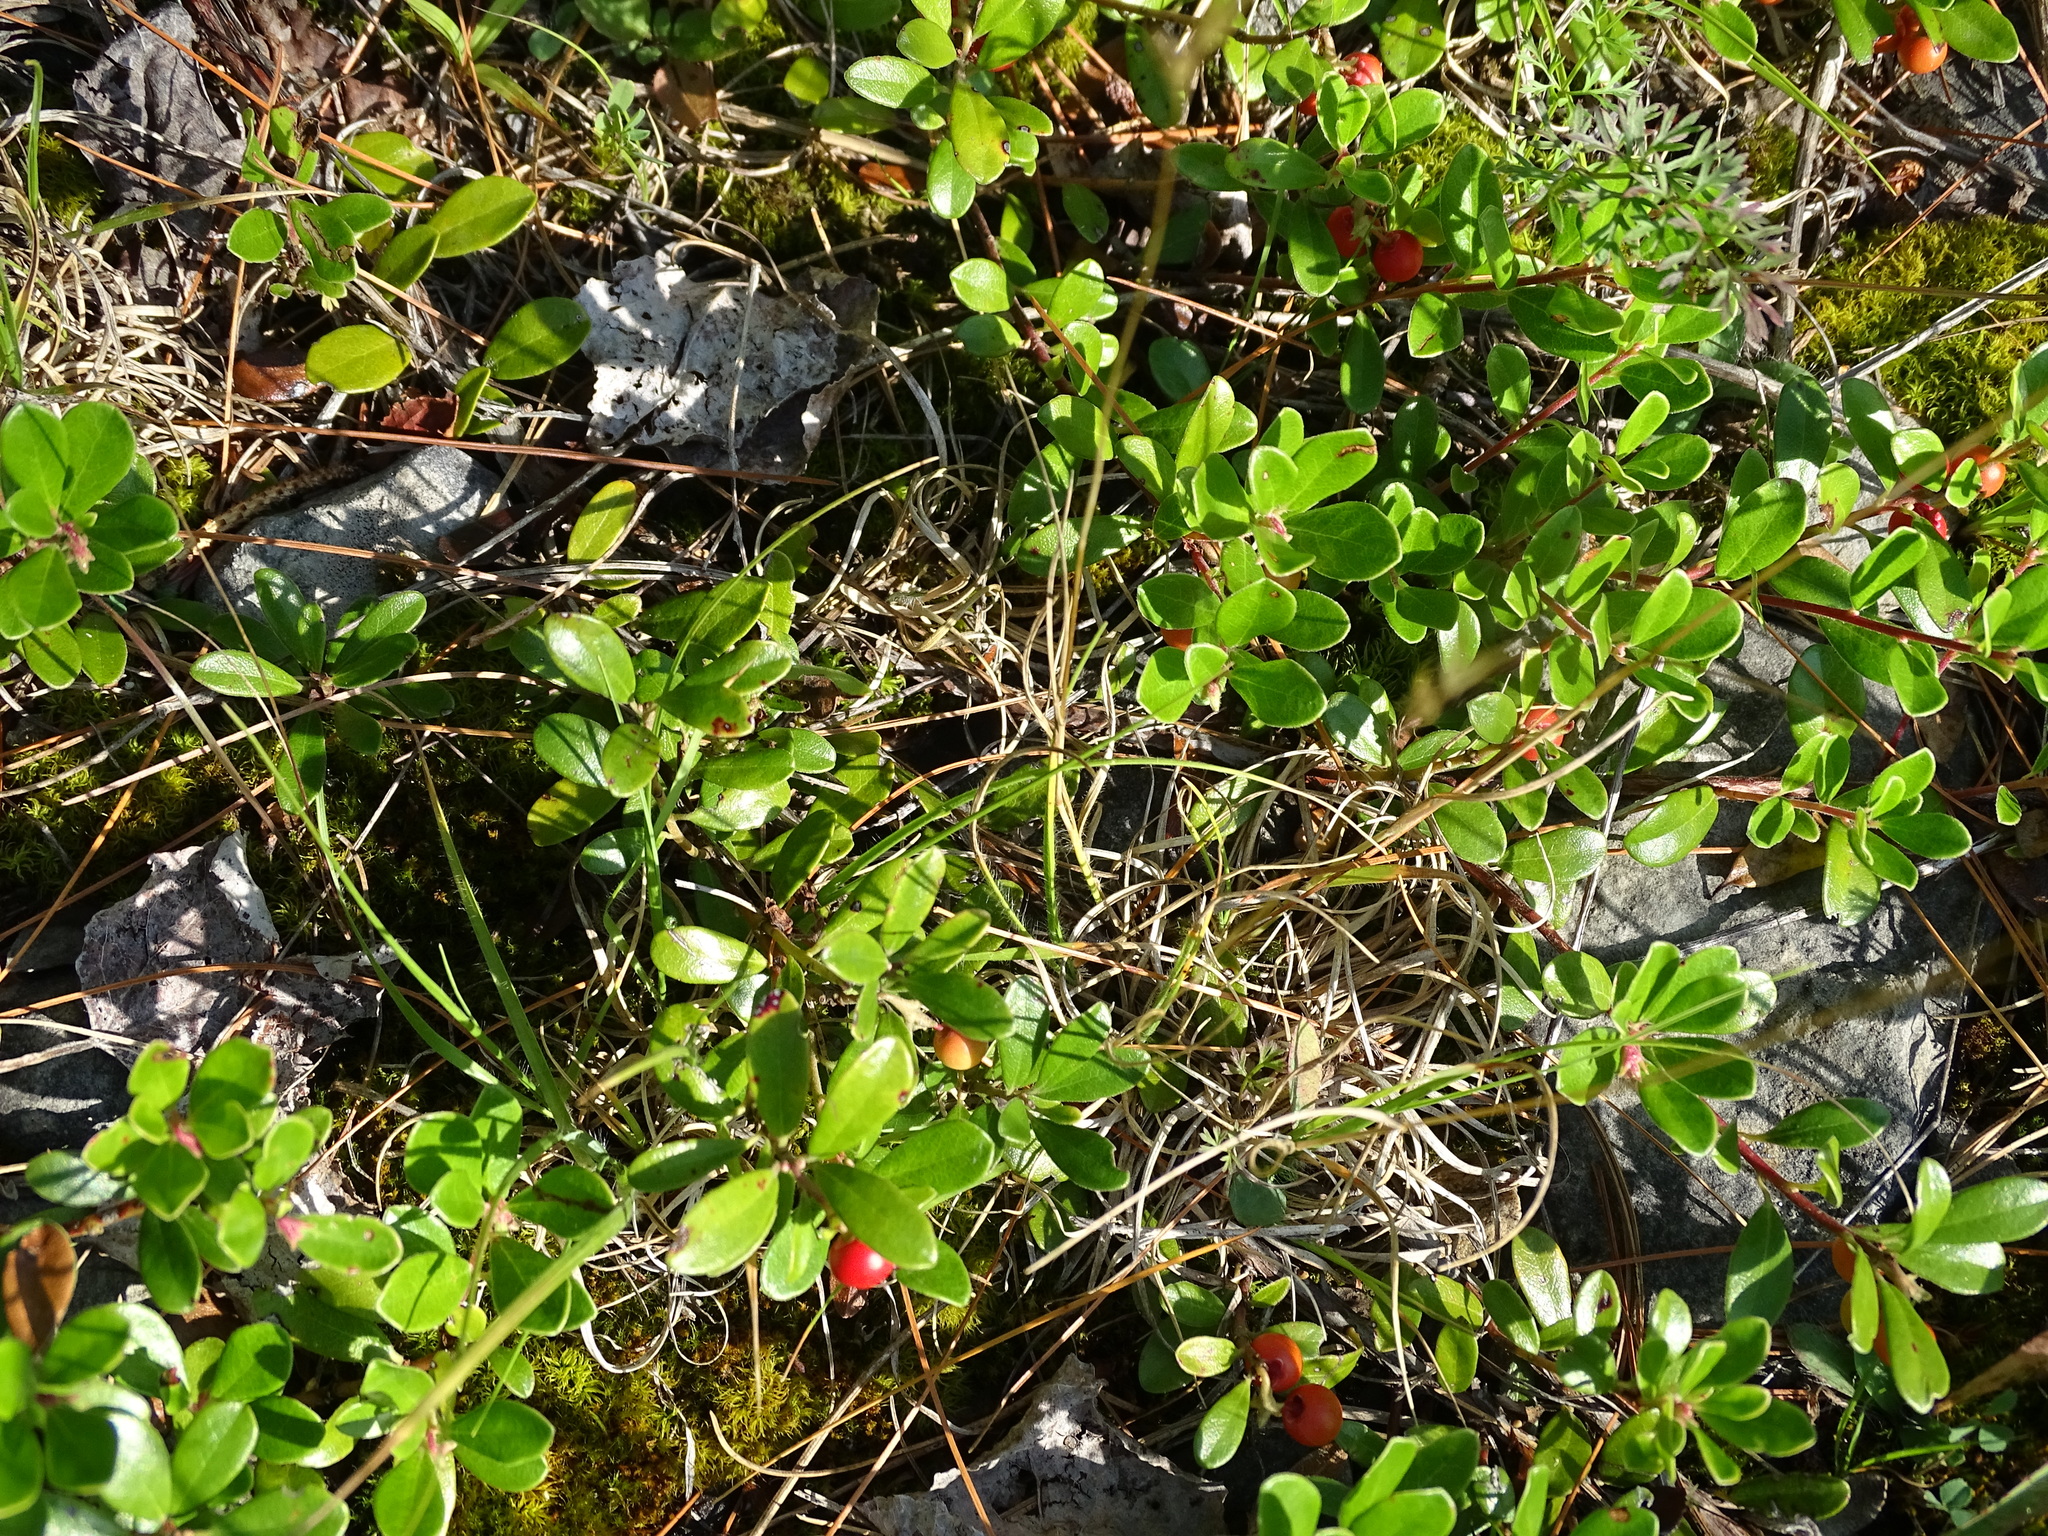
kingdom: Plantae
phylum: Tracheophyta
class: Magnoliopsida
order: Ericales
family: Ericaceae
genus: Arctostaphylos
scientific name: Arctostaphylos uva-ursi
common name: Bearberry
